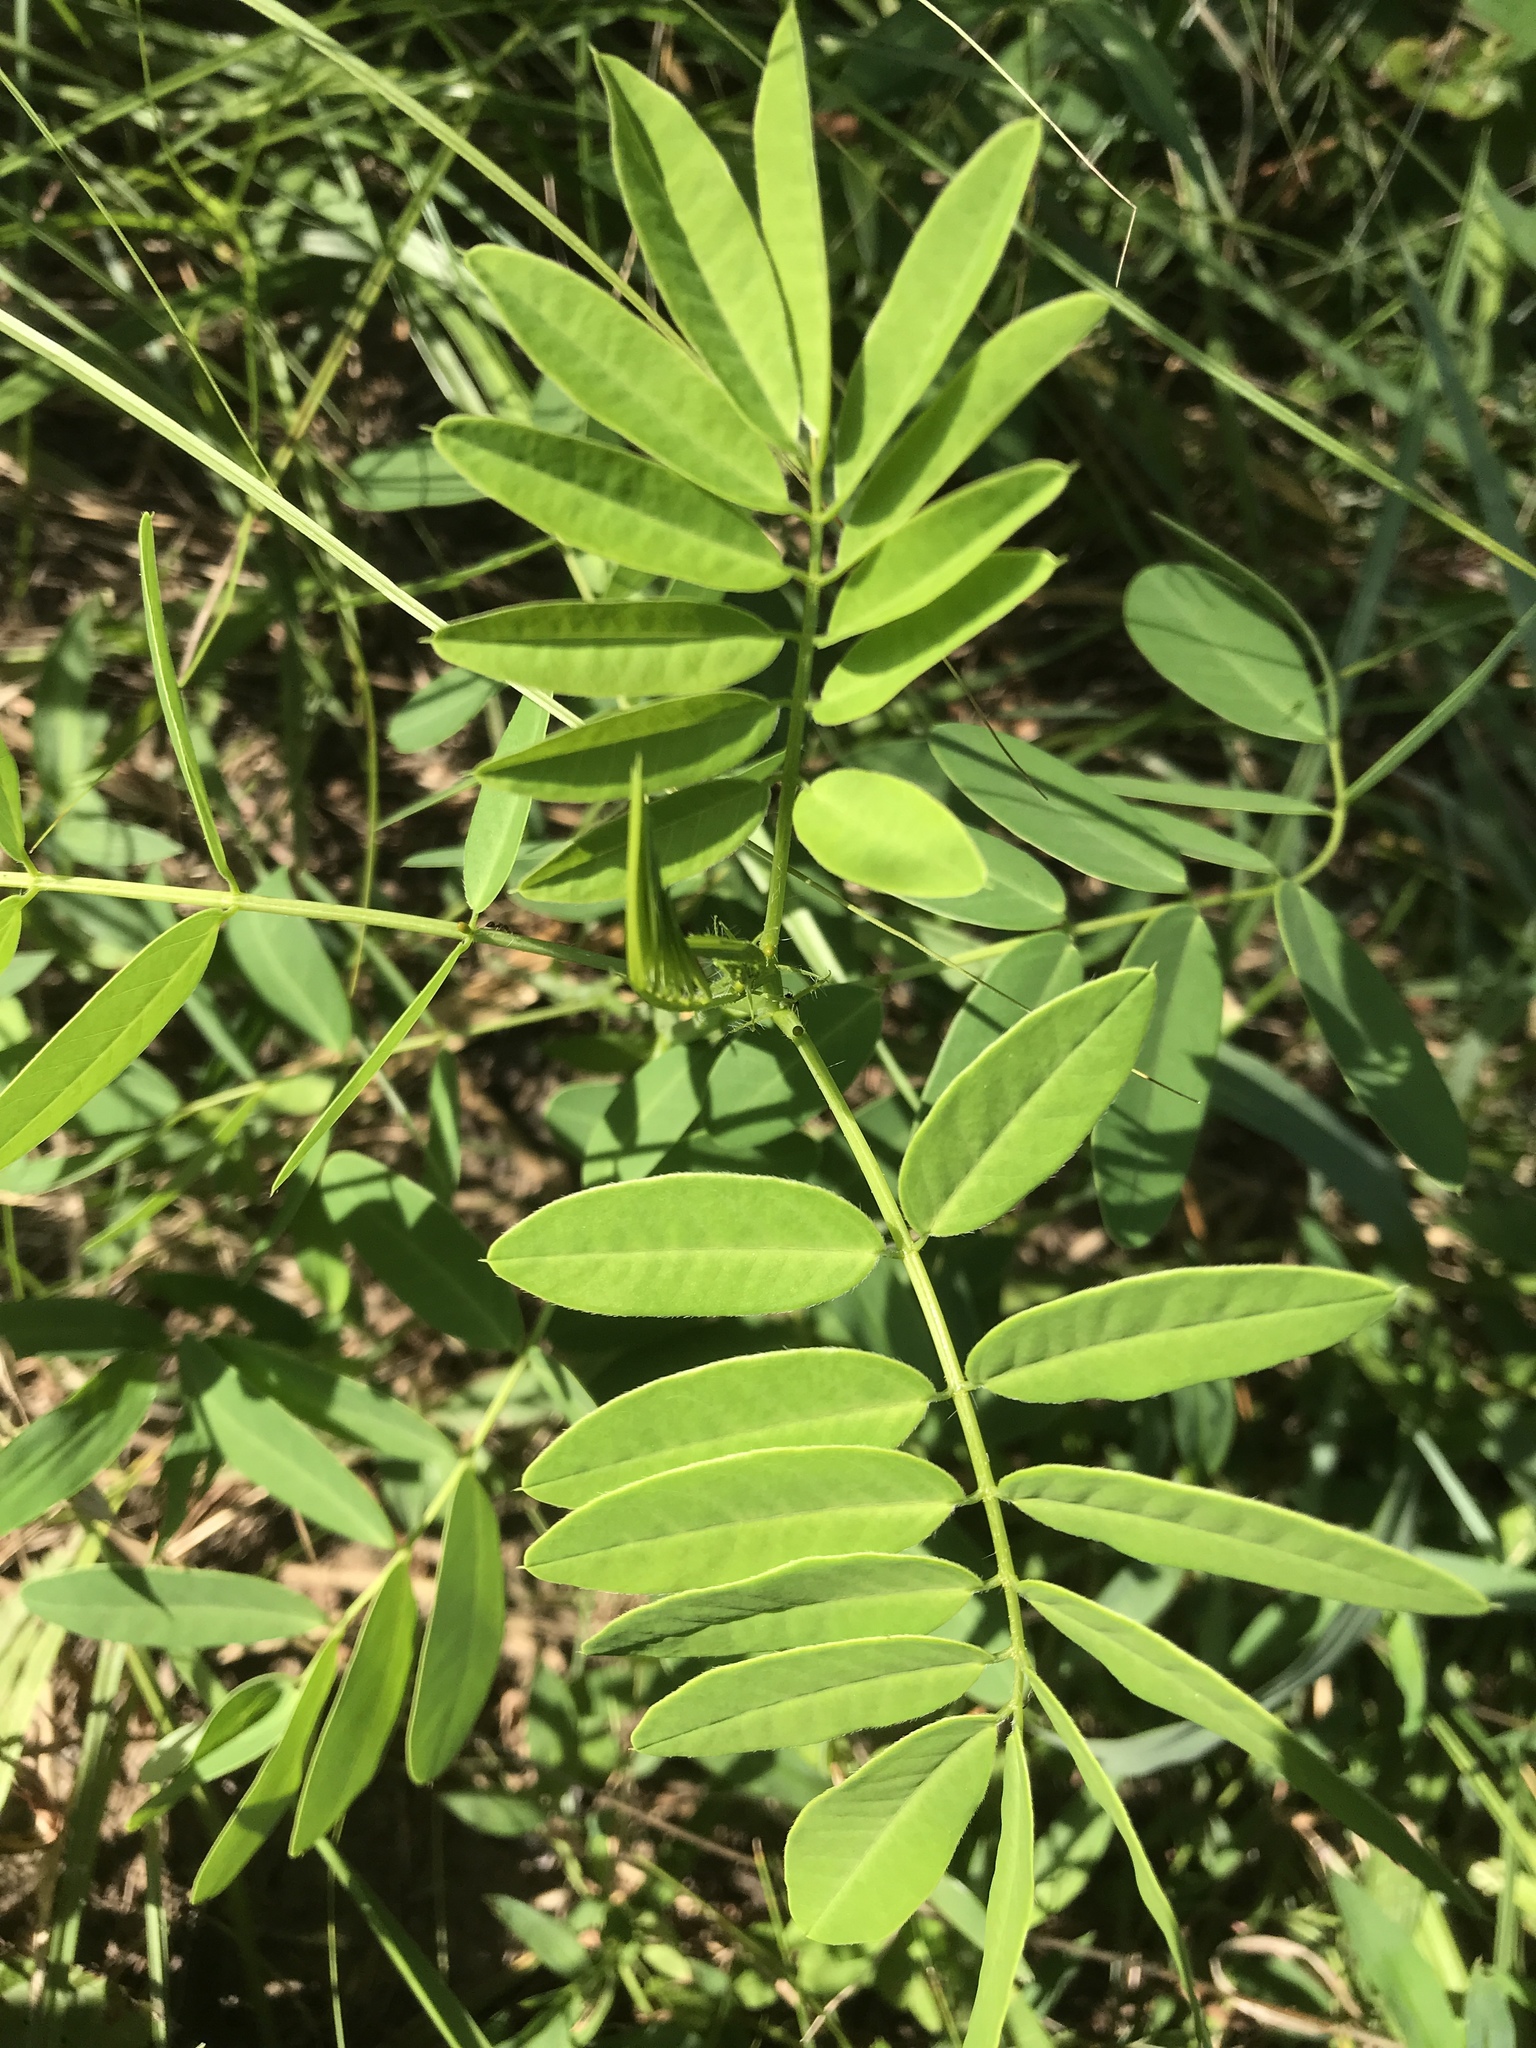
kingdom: Plantae
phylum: Tracheophyta
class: Magnoliopsida
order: Fabales
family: Fabaceae
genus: Senna
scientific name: Senna hebecarpa
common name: Wild senna
